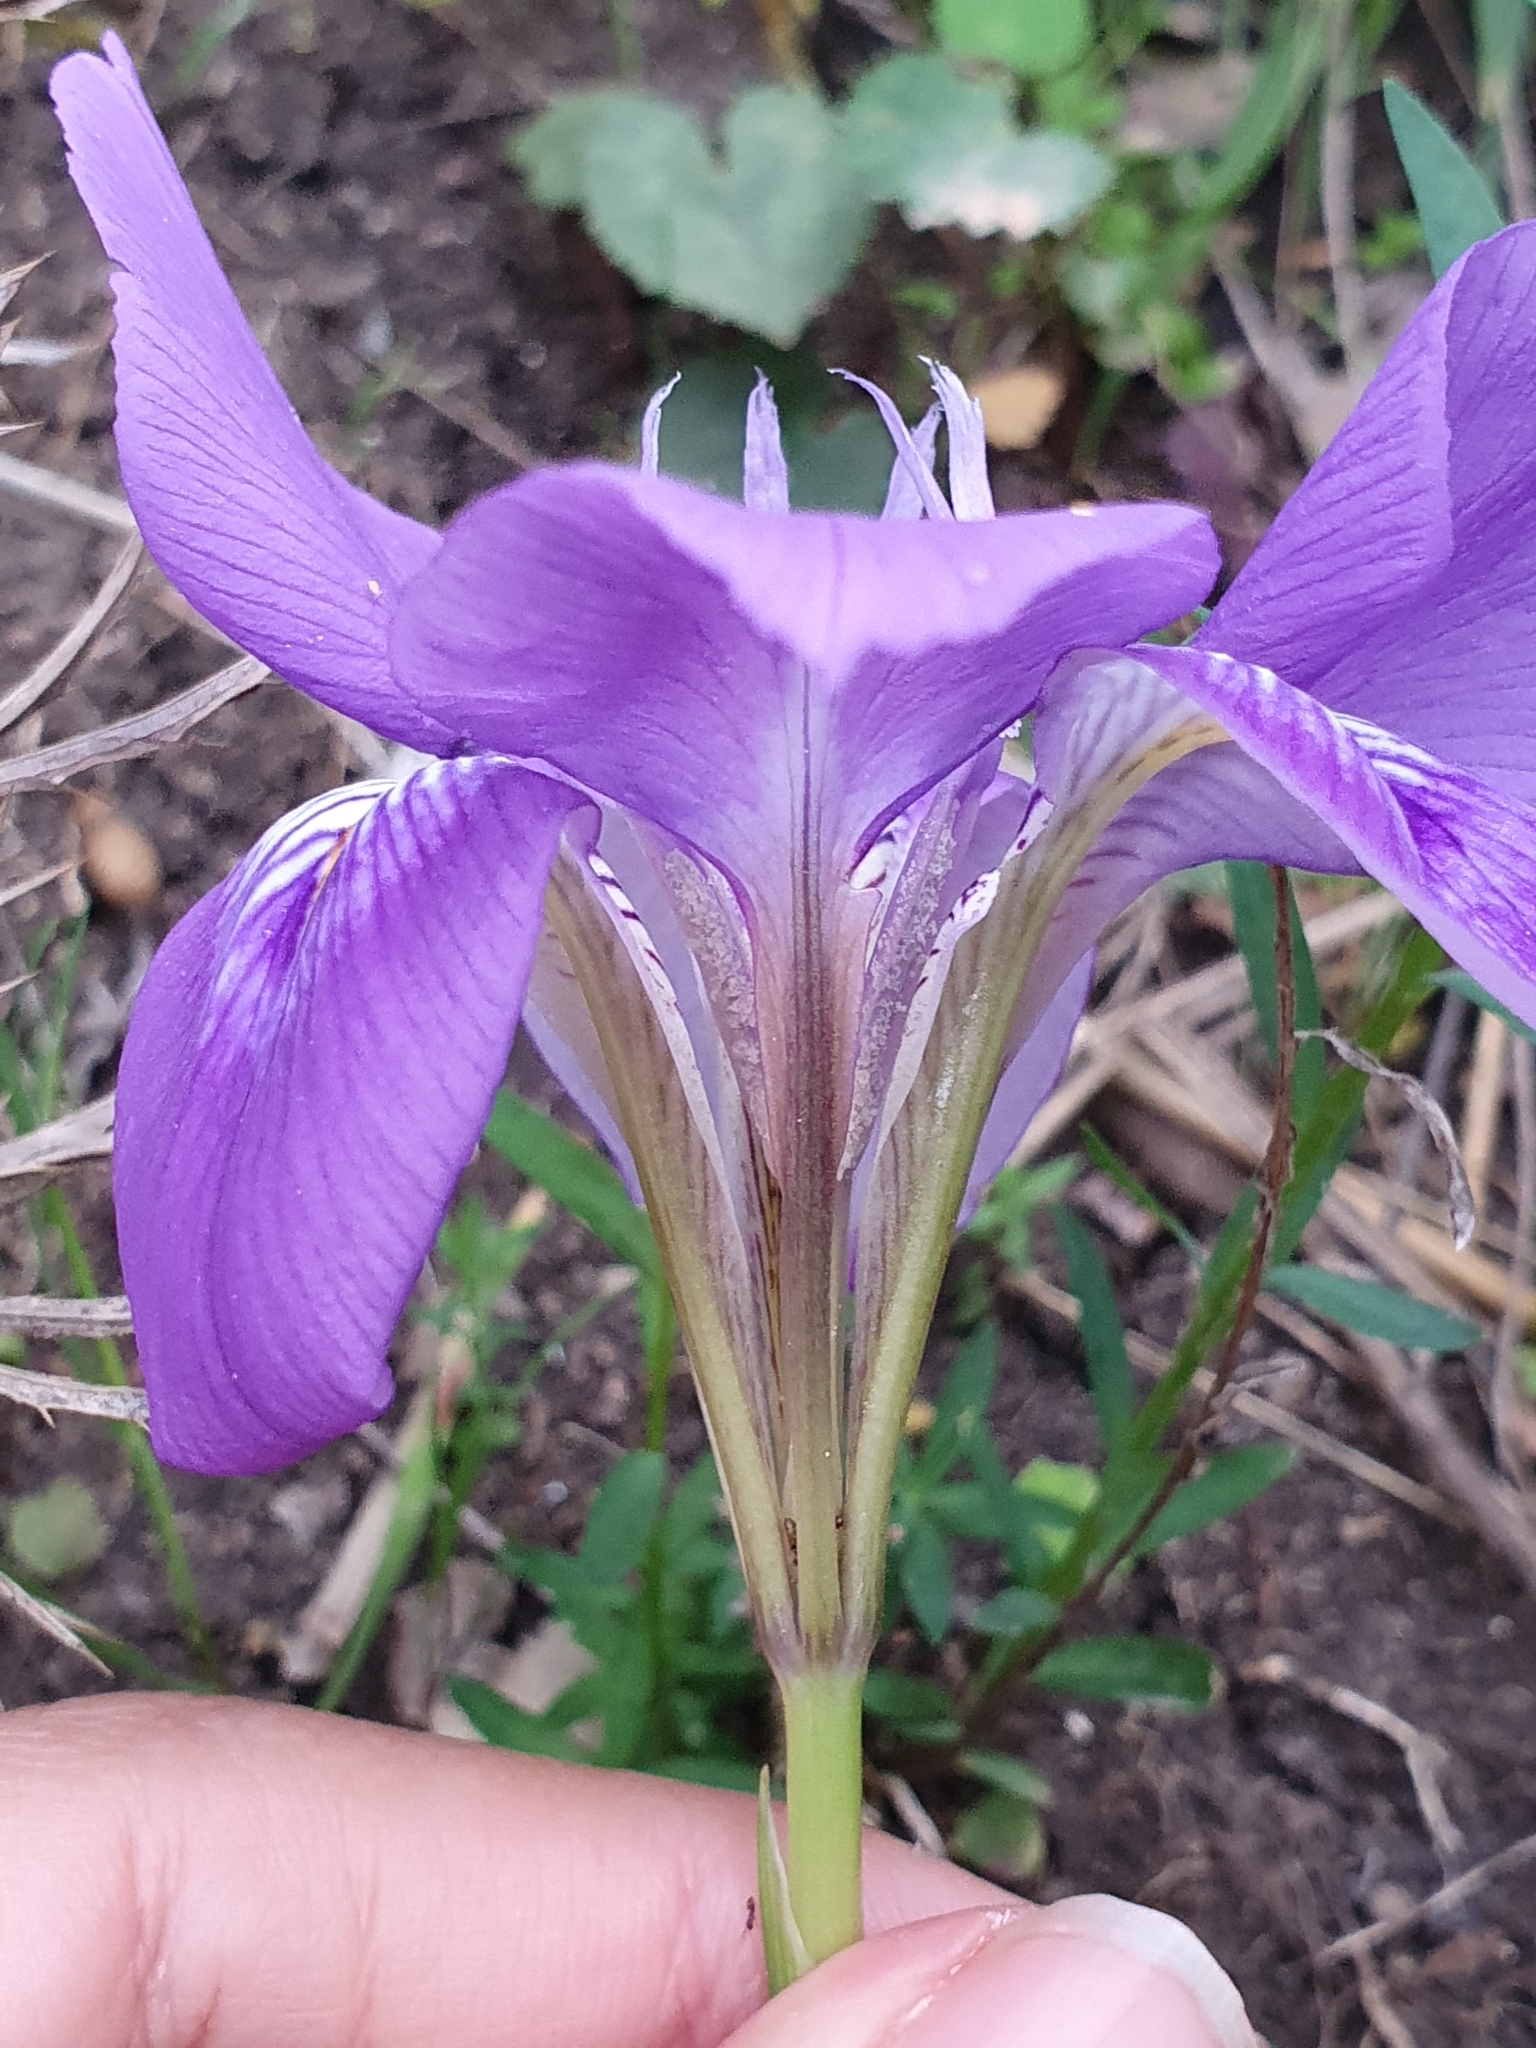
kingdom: Plantae
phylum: Tracheophyta
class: Liliopsida
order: Asparagales
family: Iridaceae
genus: Iris
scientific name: Iris unguicularis
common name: Algerian iris
